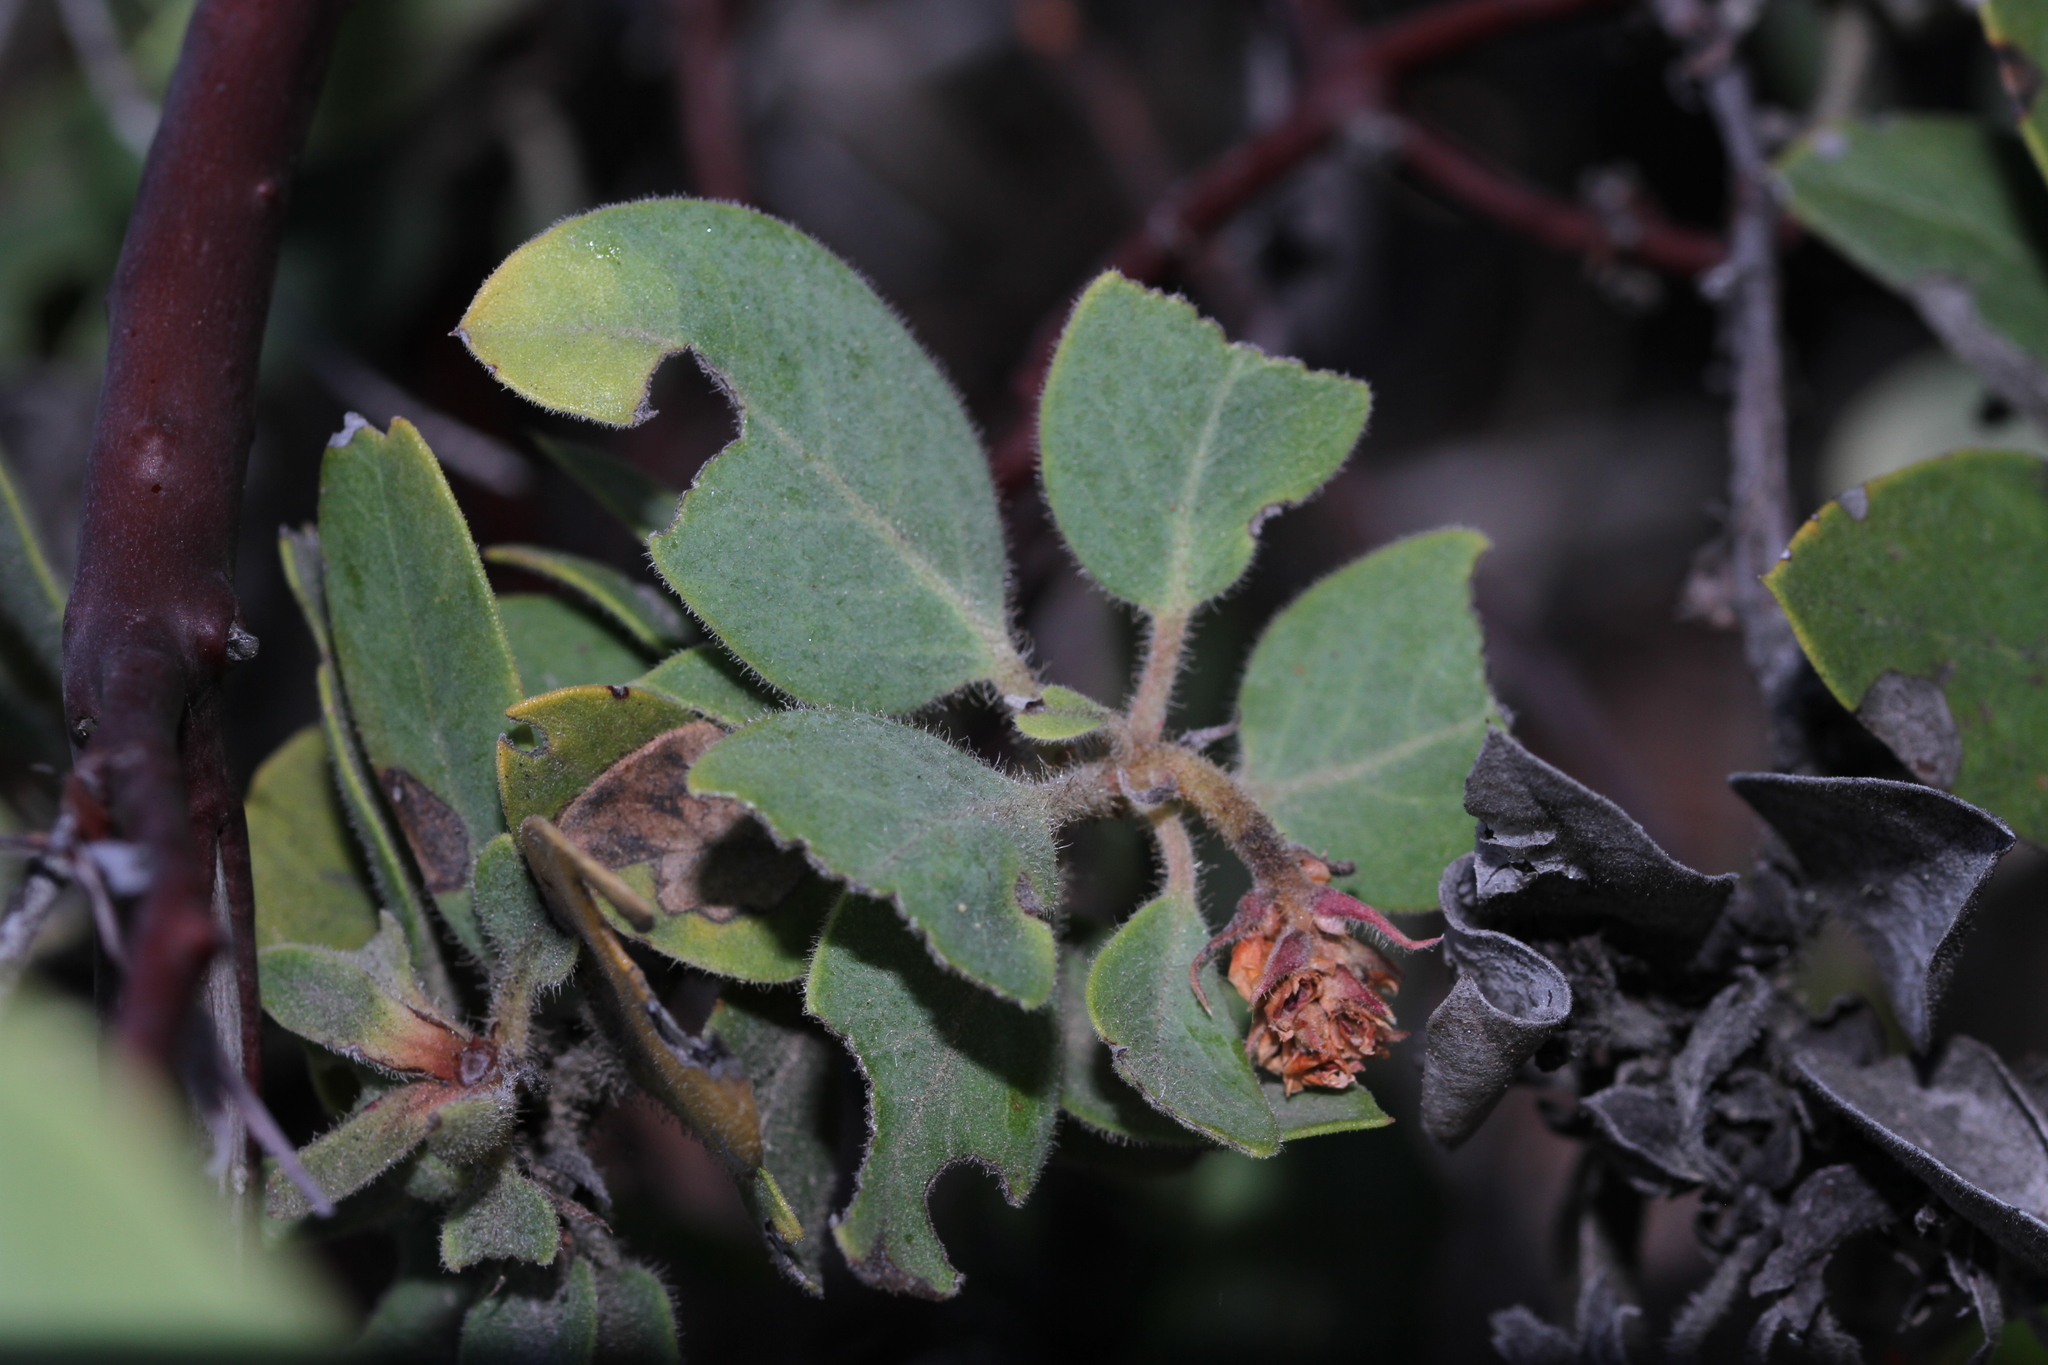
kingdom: Plantae
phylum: Tracheophyta
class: Magnoliopsida
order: Ericales
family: Ericaceae
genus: Arctostaphylos
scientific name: Arctostaphylos glandulosa
